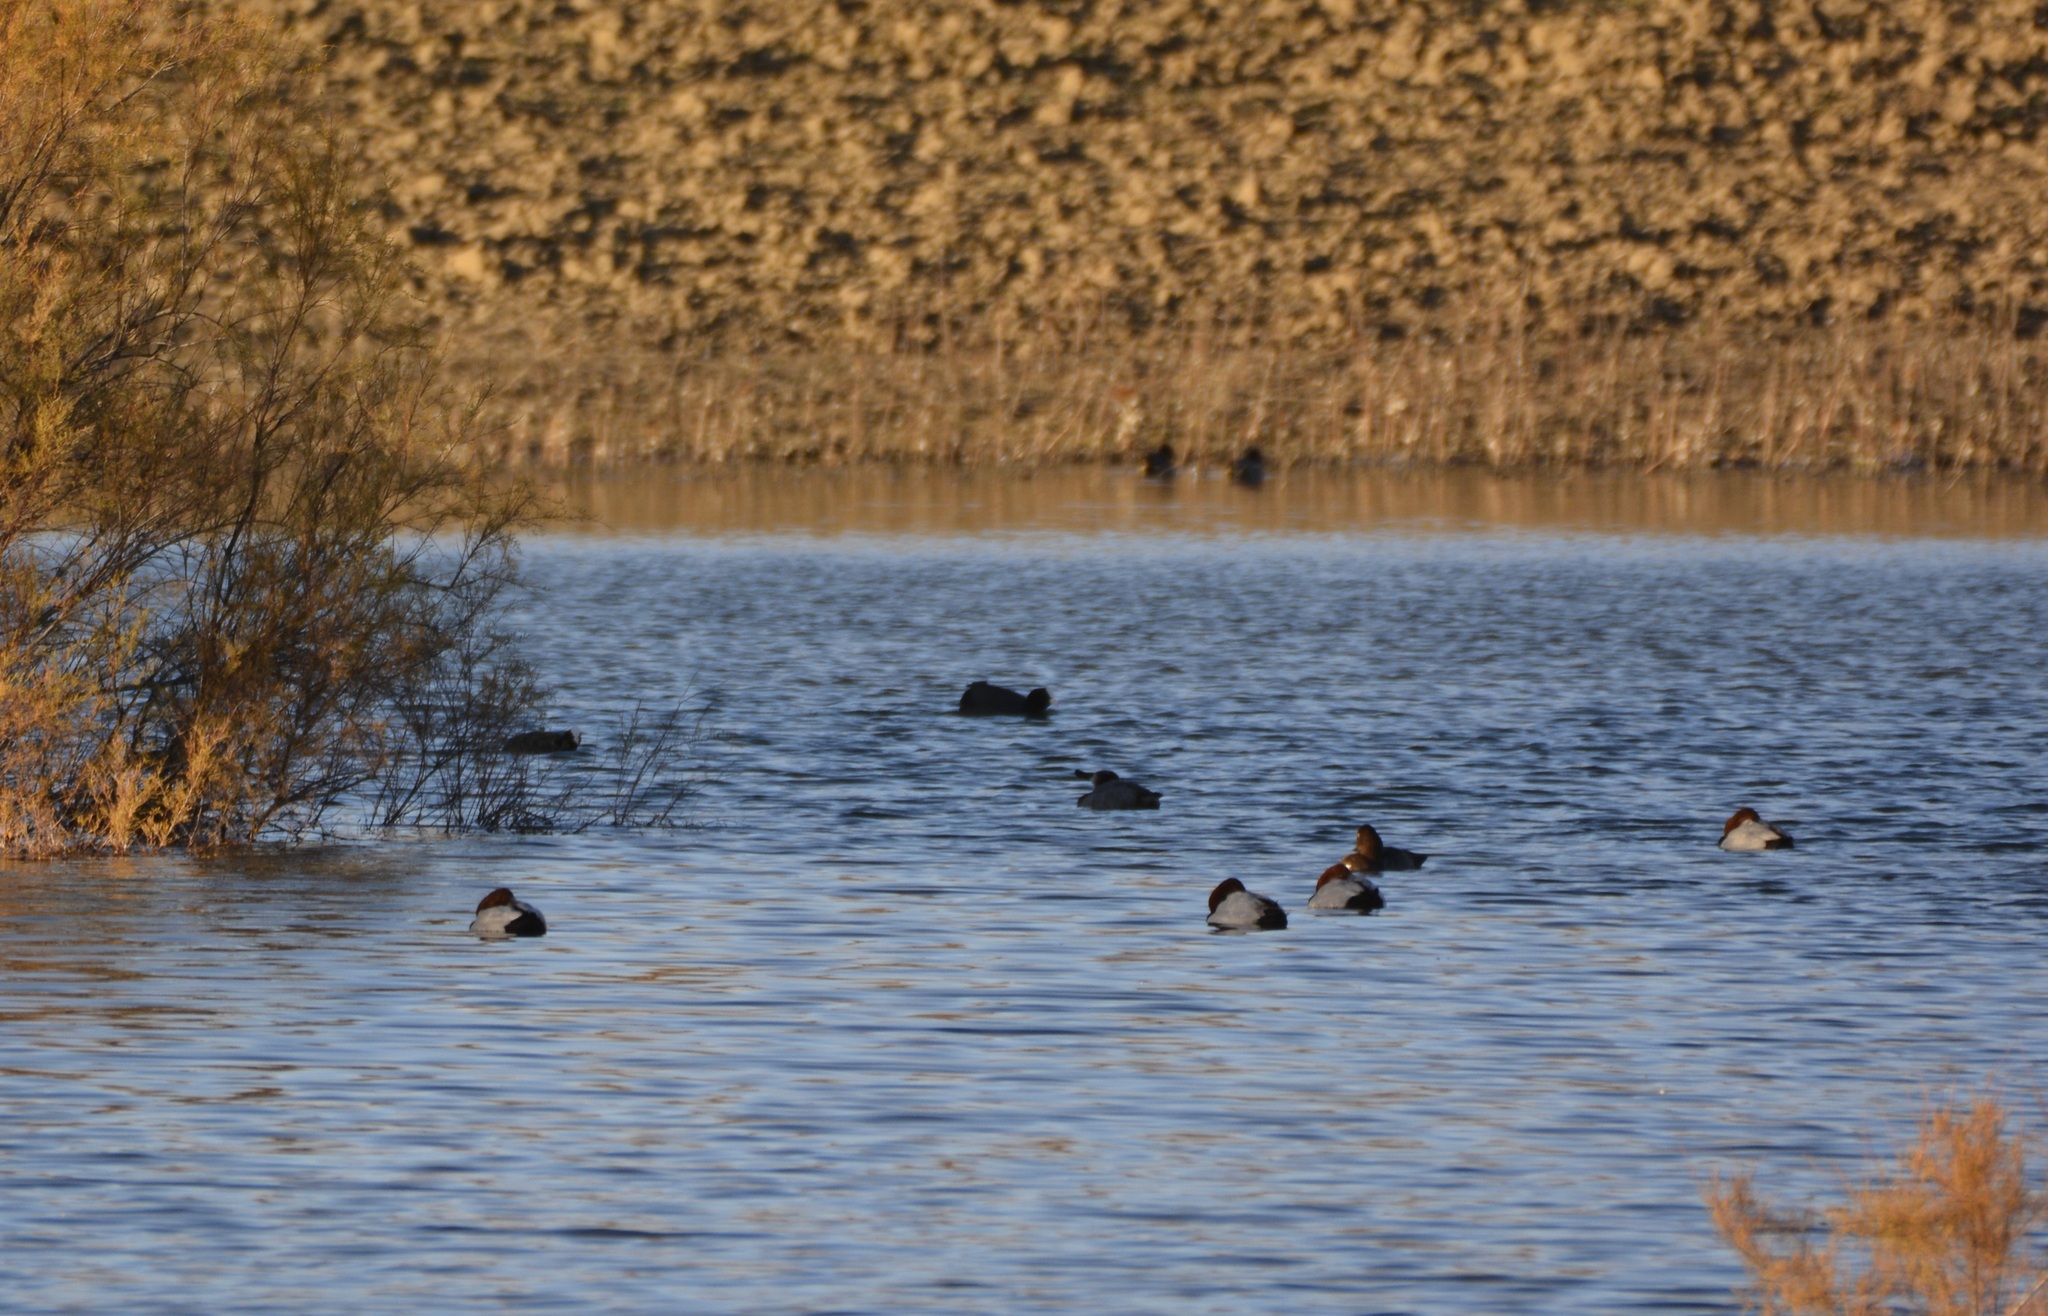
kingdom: Animalia
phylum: Chordata
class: Aves
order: Anseriformes
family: Anatidae
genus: Aythya
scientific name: Aythya ferina
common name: Common pochard
